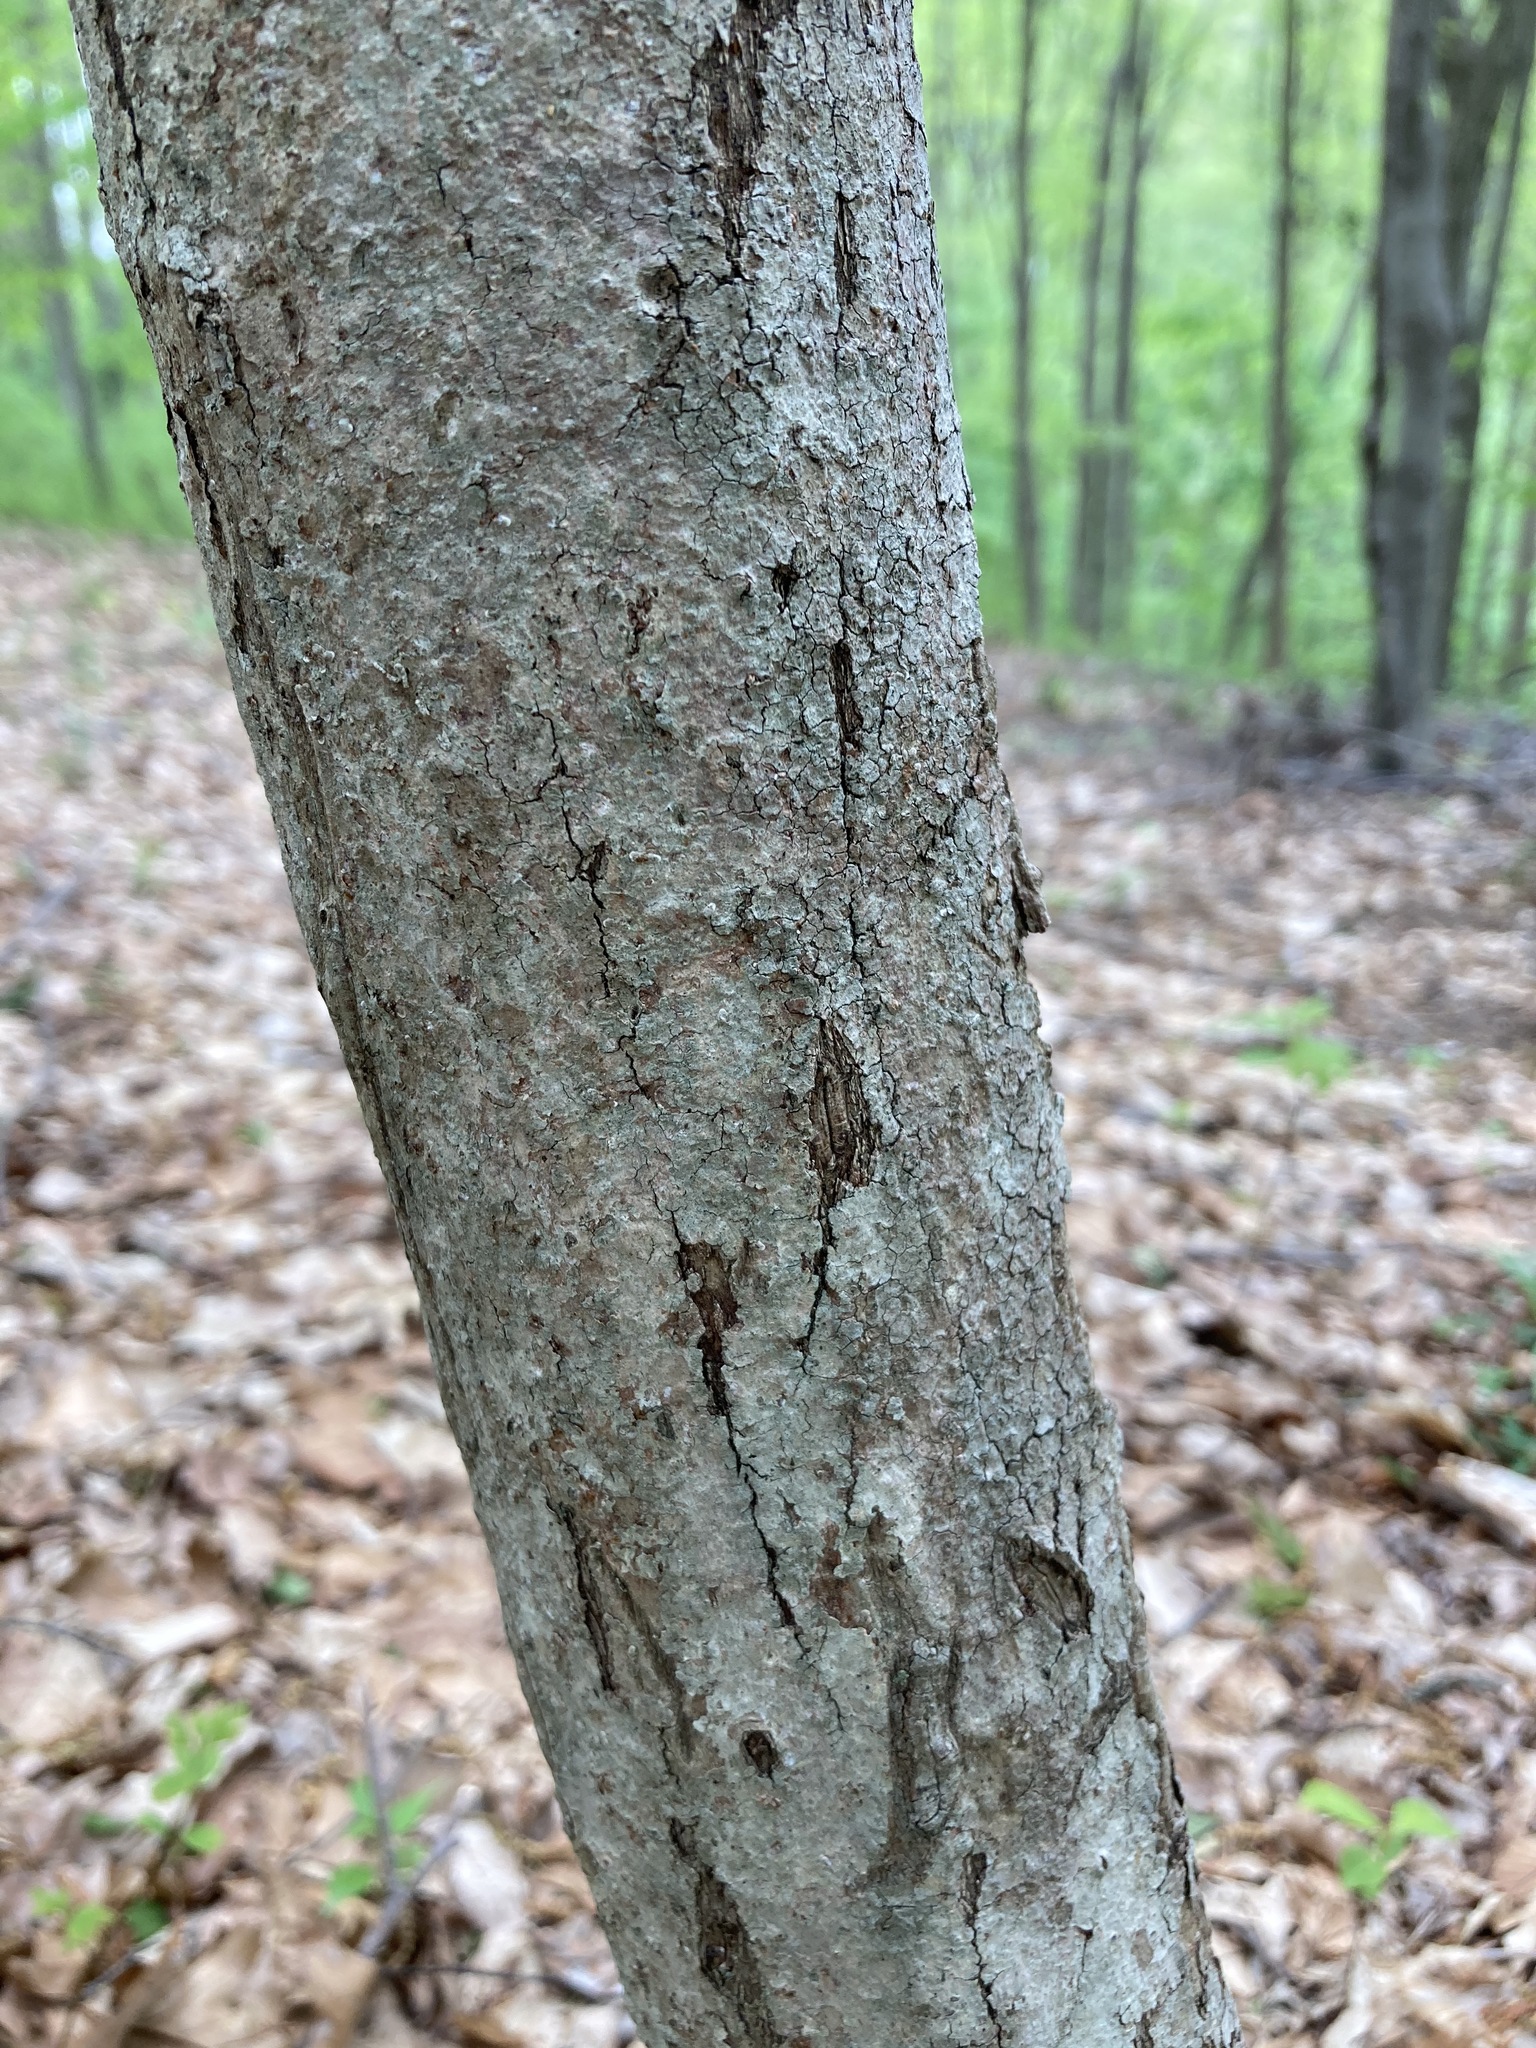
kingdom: Plantae
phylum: Tracheophyta
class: Magnoliopsida
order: Cornales
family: Cornaceae
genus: Cornus
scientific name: Cornus florida
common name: Flowering dogwood
